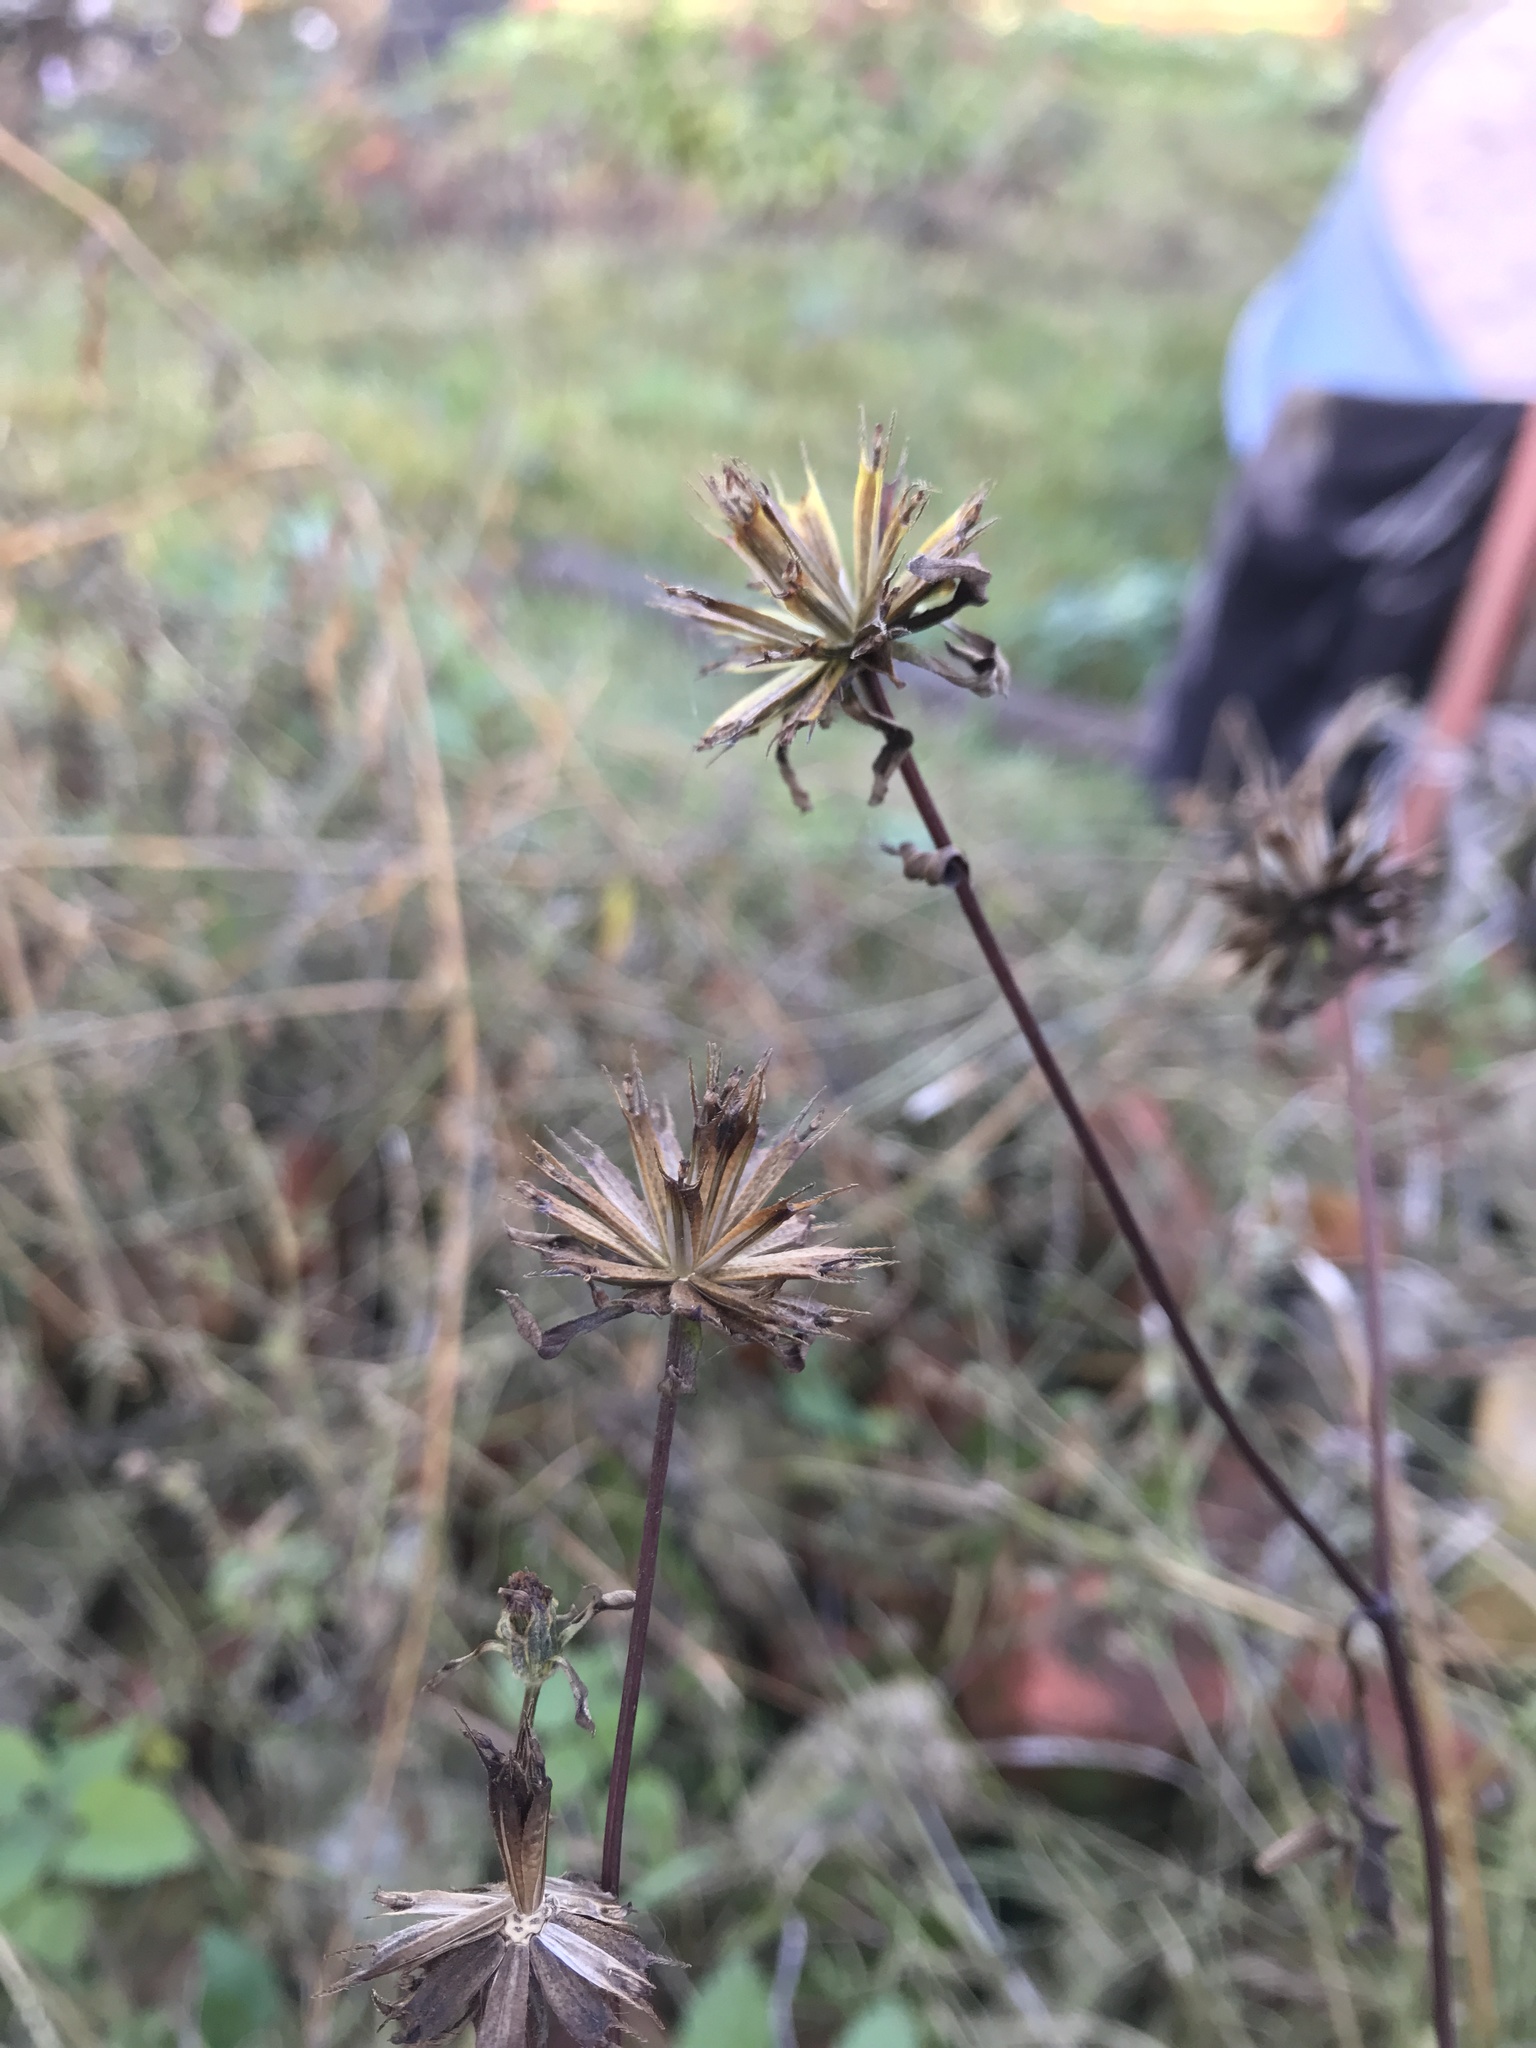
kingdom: Plantae
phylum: Tracheophyta
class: Magnoliopsida
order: Asterales
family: Asteraceae
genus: Bidens
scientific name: Bidens frondosa
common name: Beggarticks
